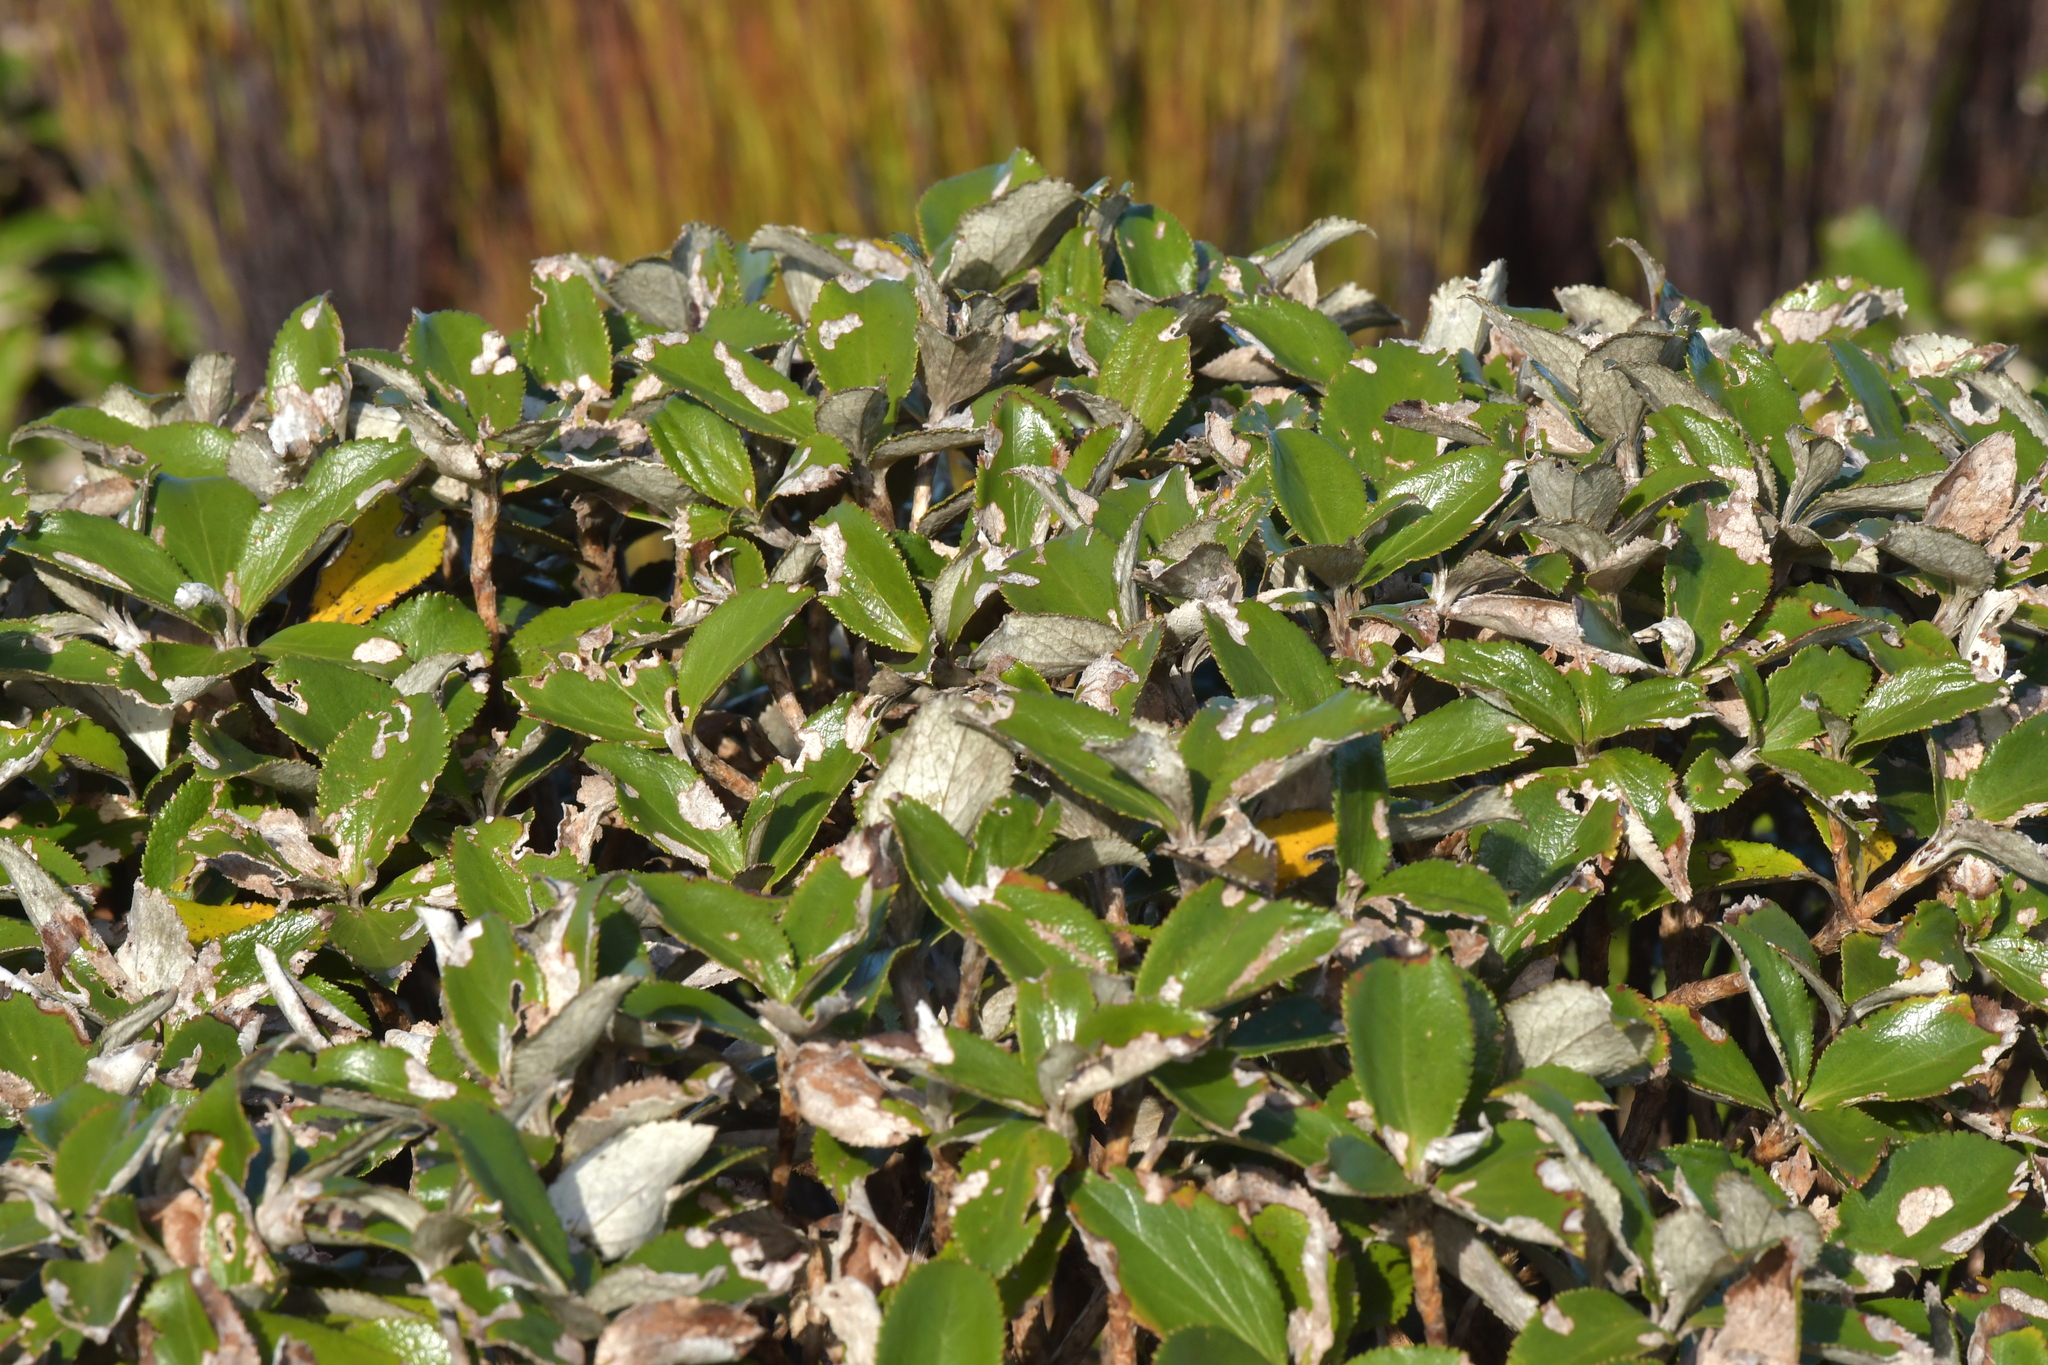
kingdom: Plantae
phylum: Tracheophyta
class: Magnoliopsida
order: Asterales
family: Asteraceae
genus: Macrolearia
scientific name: Macrolearia colensoi
